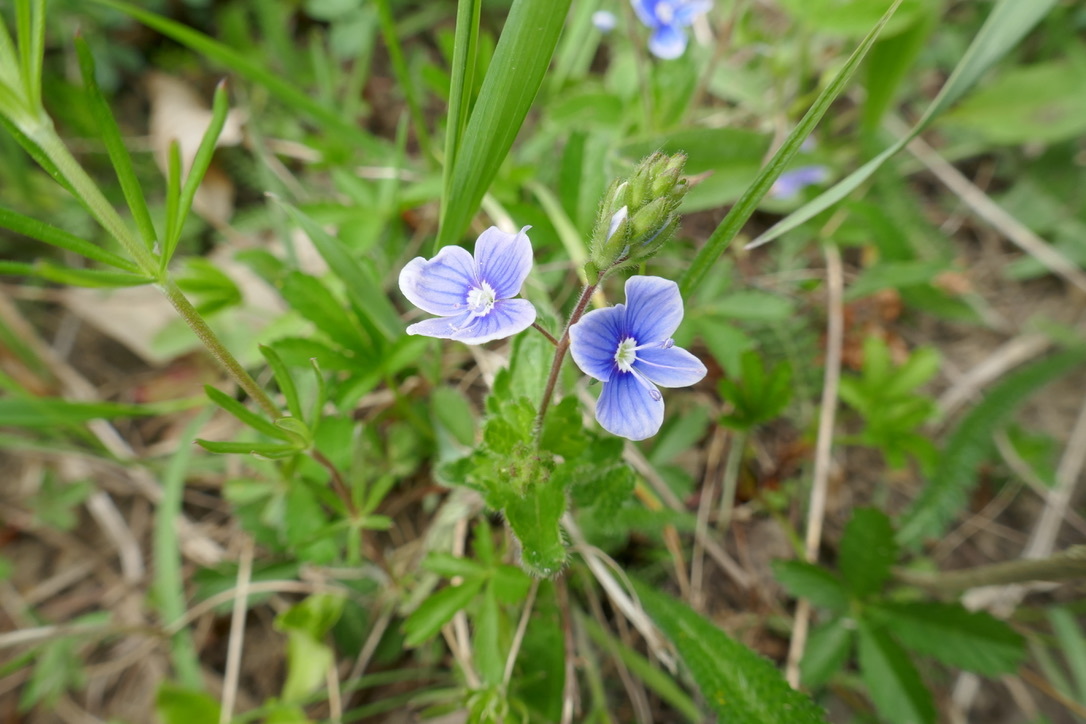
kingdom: Plantae
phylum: Tracheophyta
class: Magnoliopsida
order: Lamiales
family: Plantaginaceae
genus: Veronica
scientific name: Veronica vindobonensis
